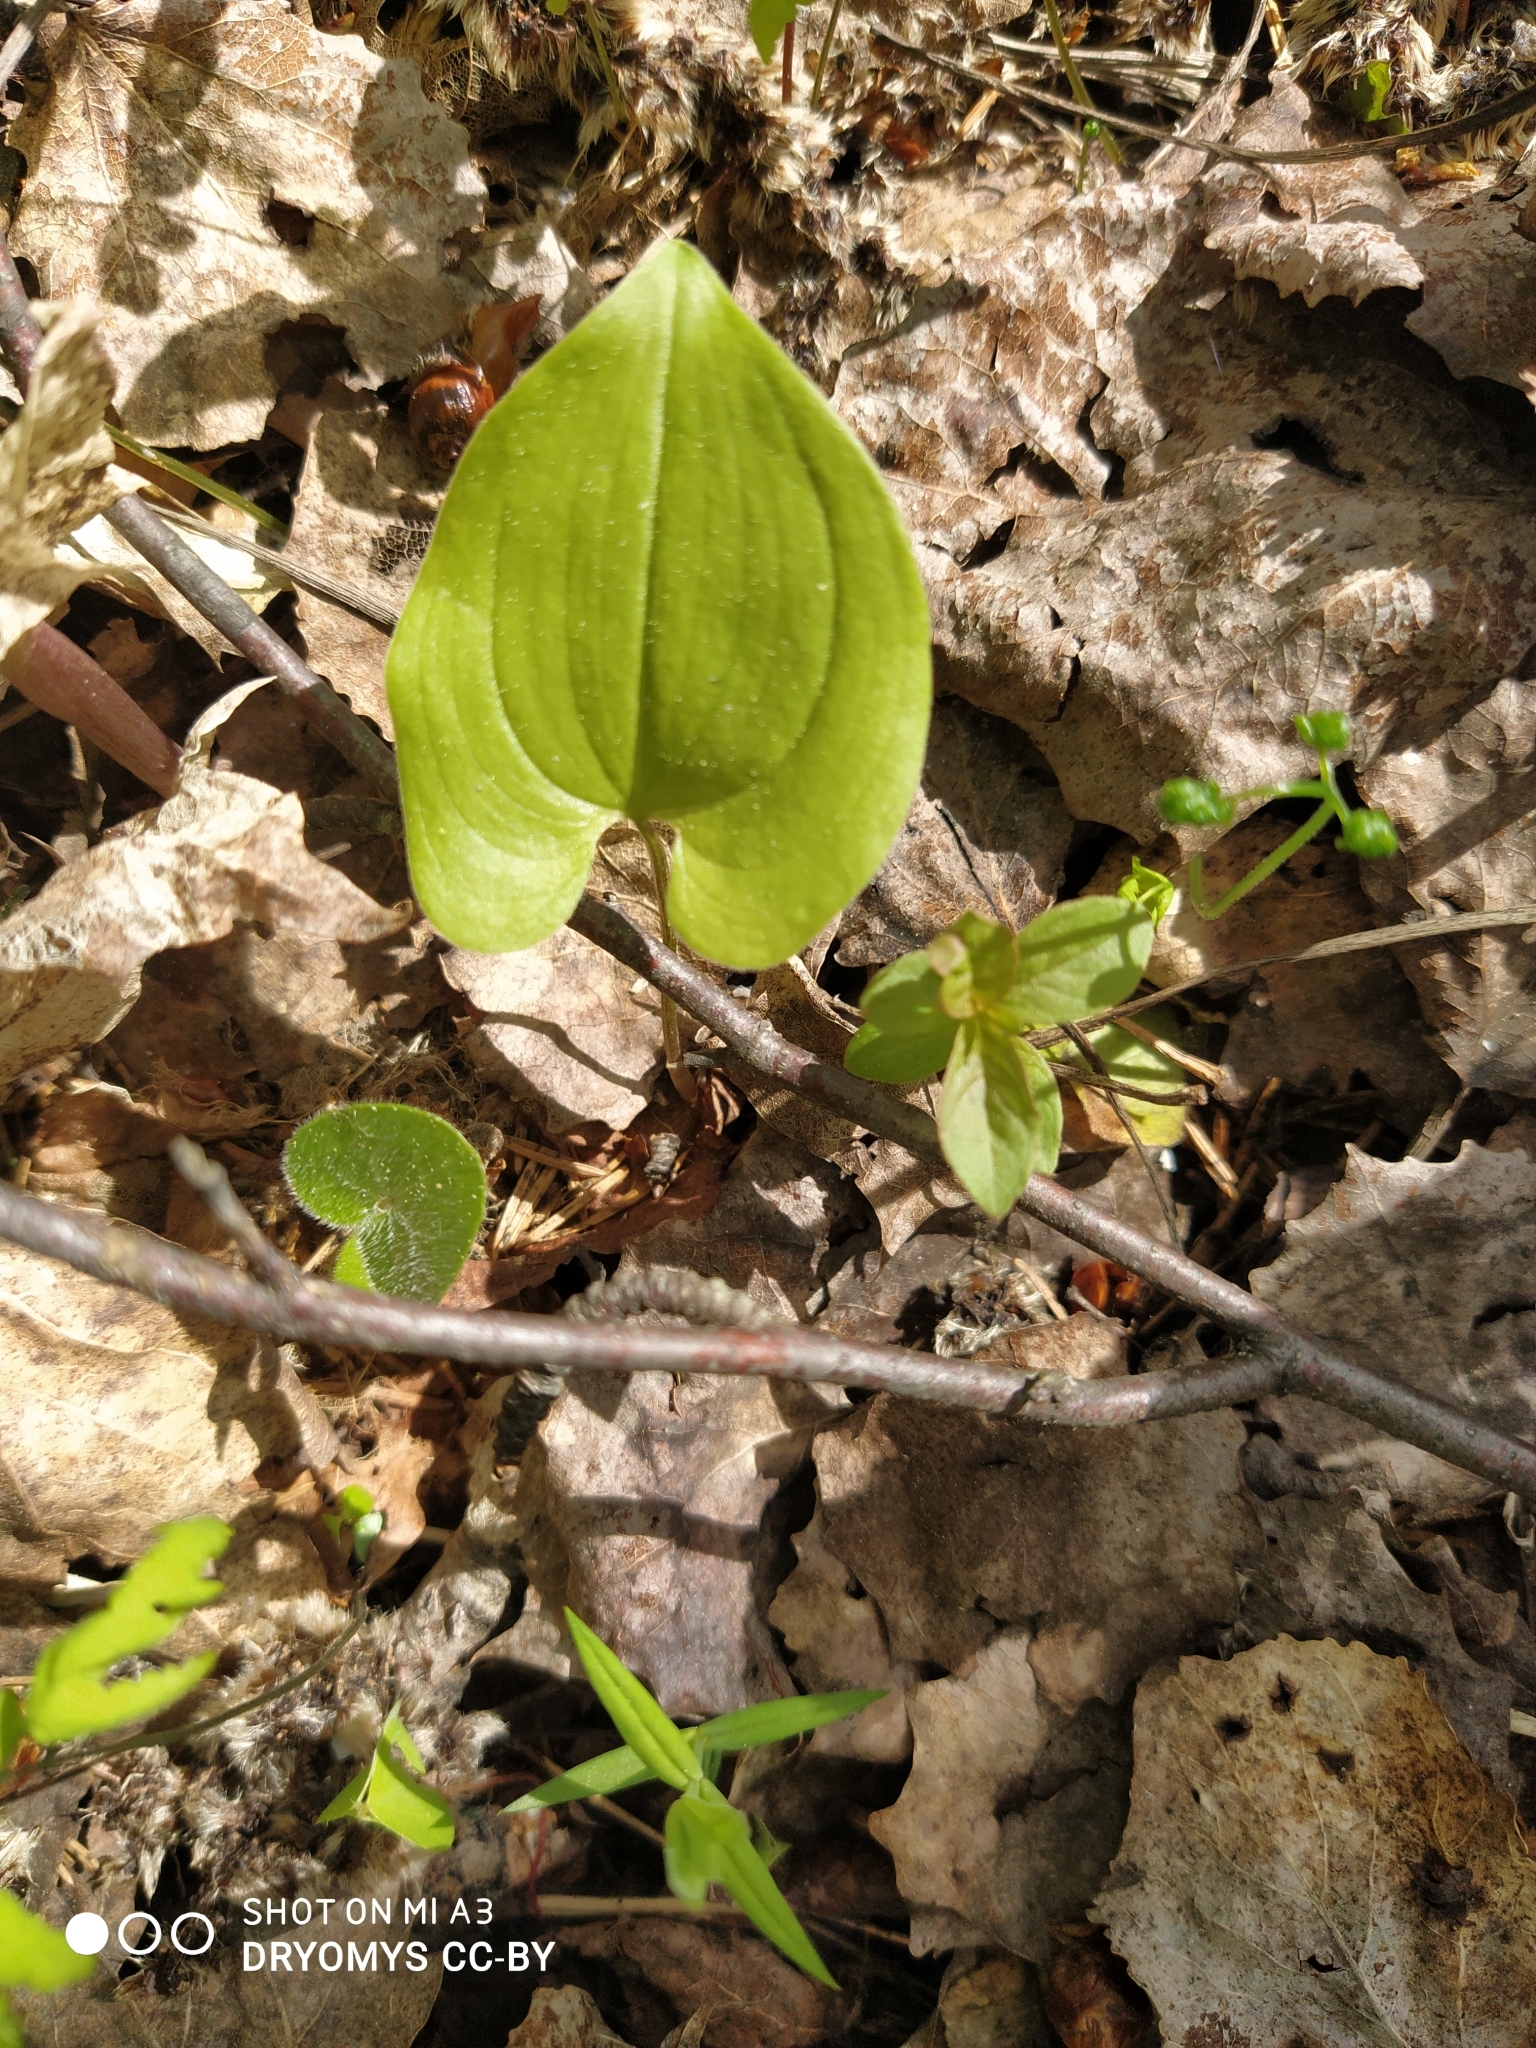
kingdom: Plantae
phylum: Tracheophyta
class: Liliopsida
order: Asparagales
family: Asparagaceae
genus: Maianthemum
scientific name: Maianthemum bifolium
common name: May lily
